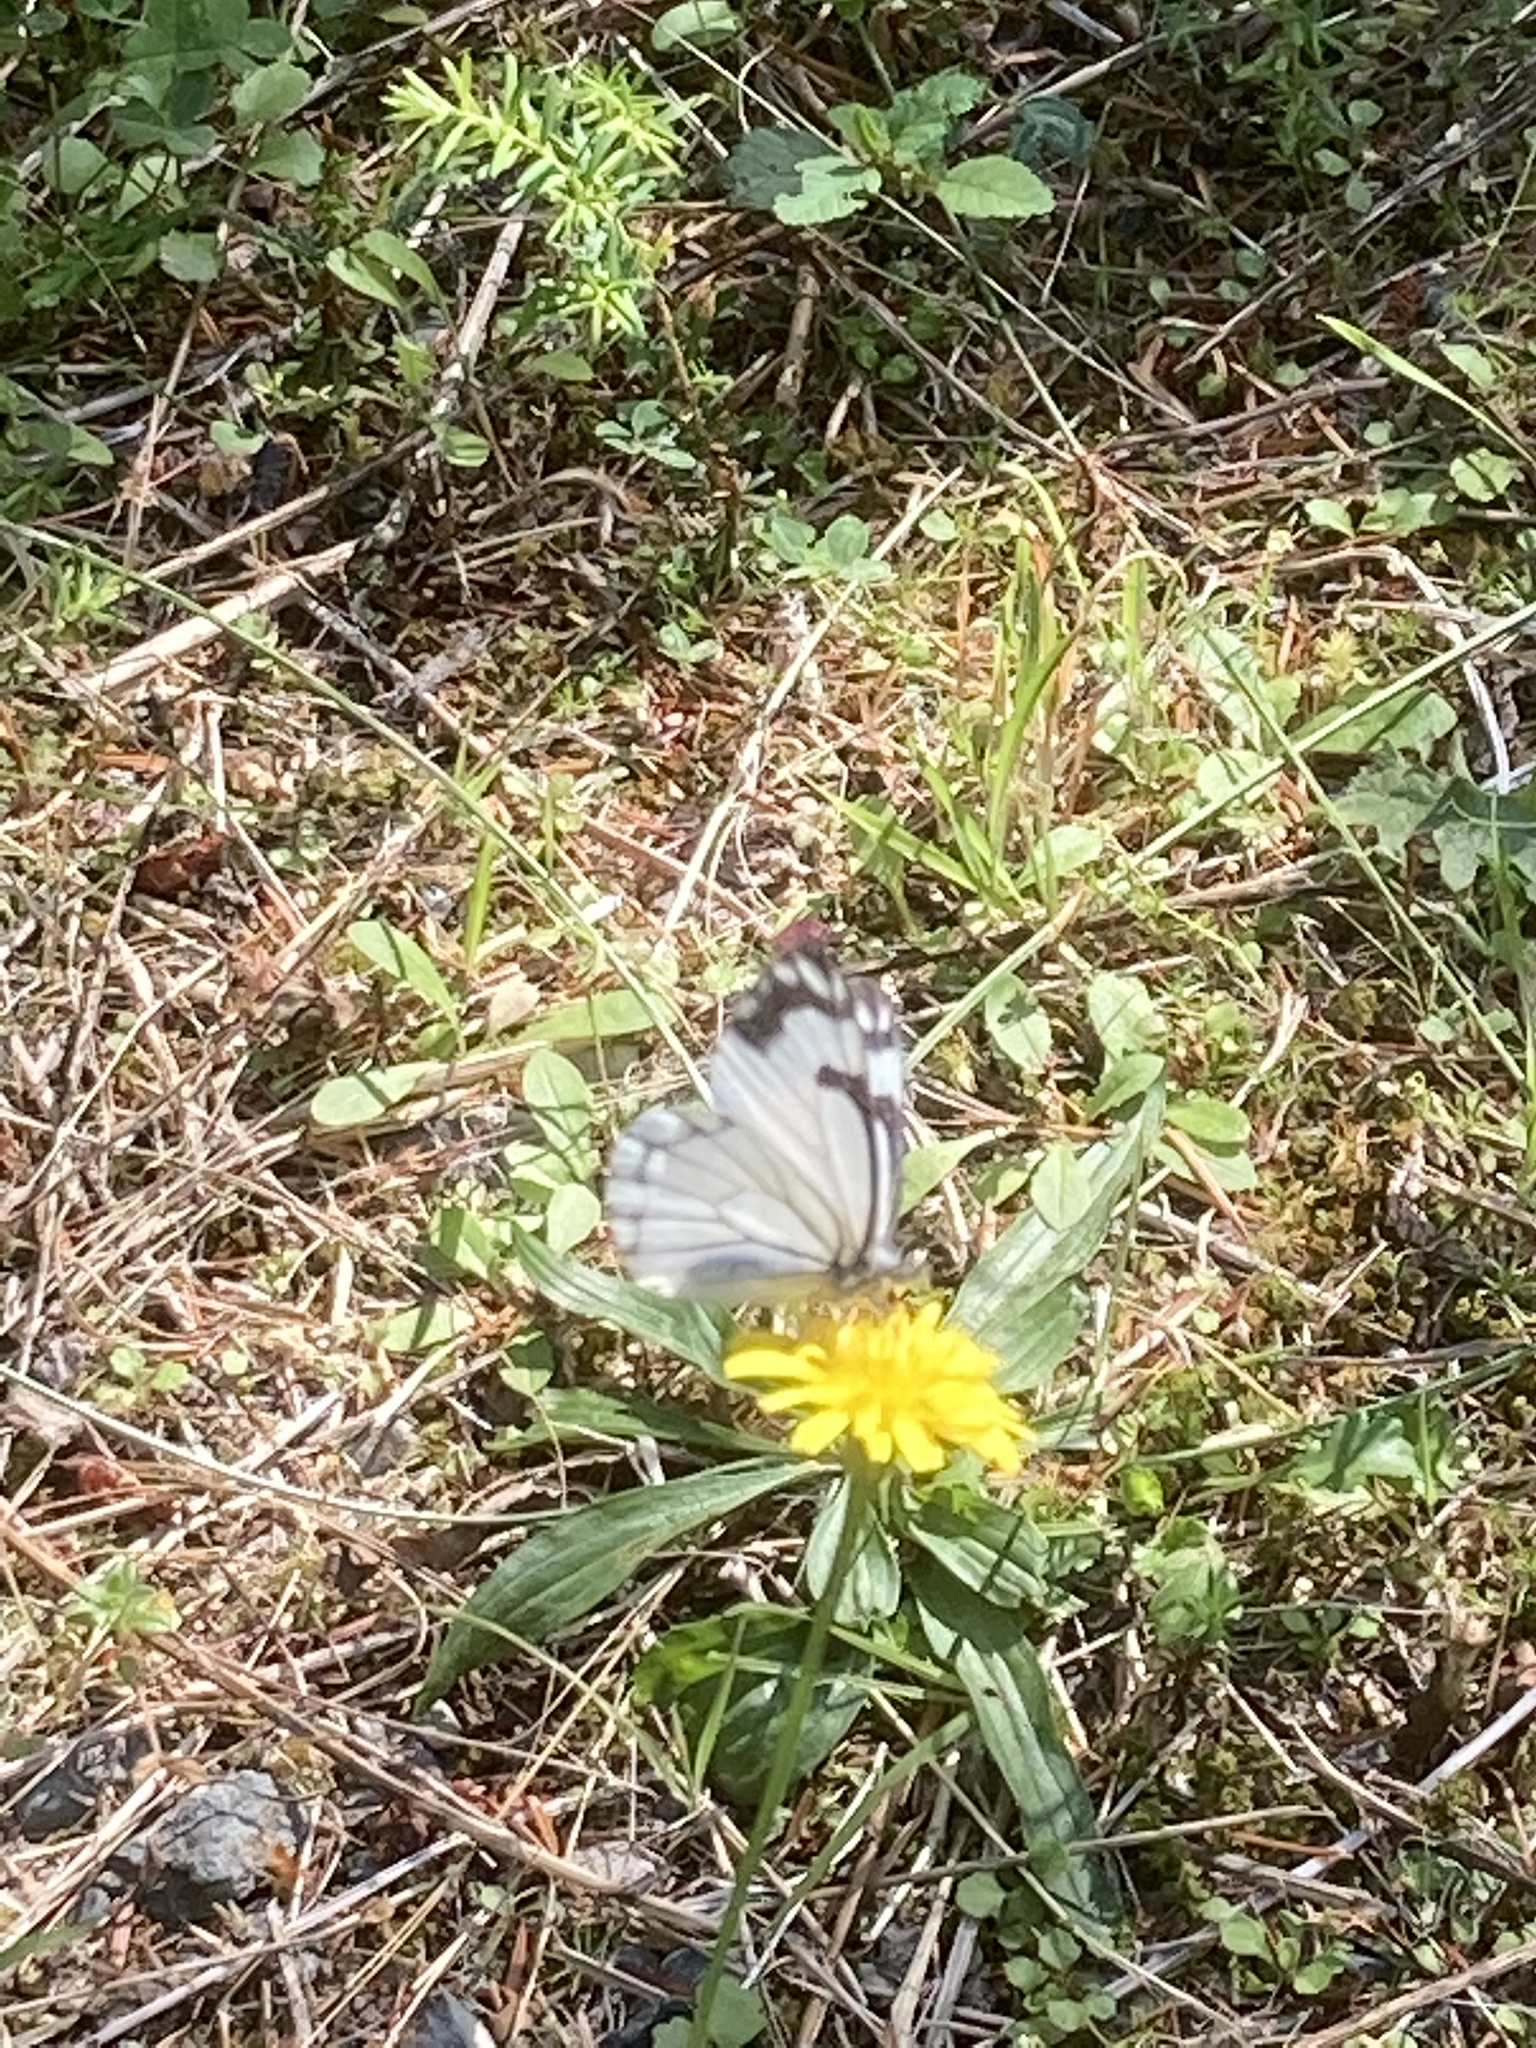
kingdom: Animalia
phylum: Arthropoda
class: Insecta
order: Lepidoptera
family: Pieridae
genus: Neophasia
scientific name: Neophasia menapia
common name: Pine white
